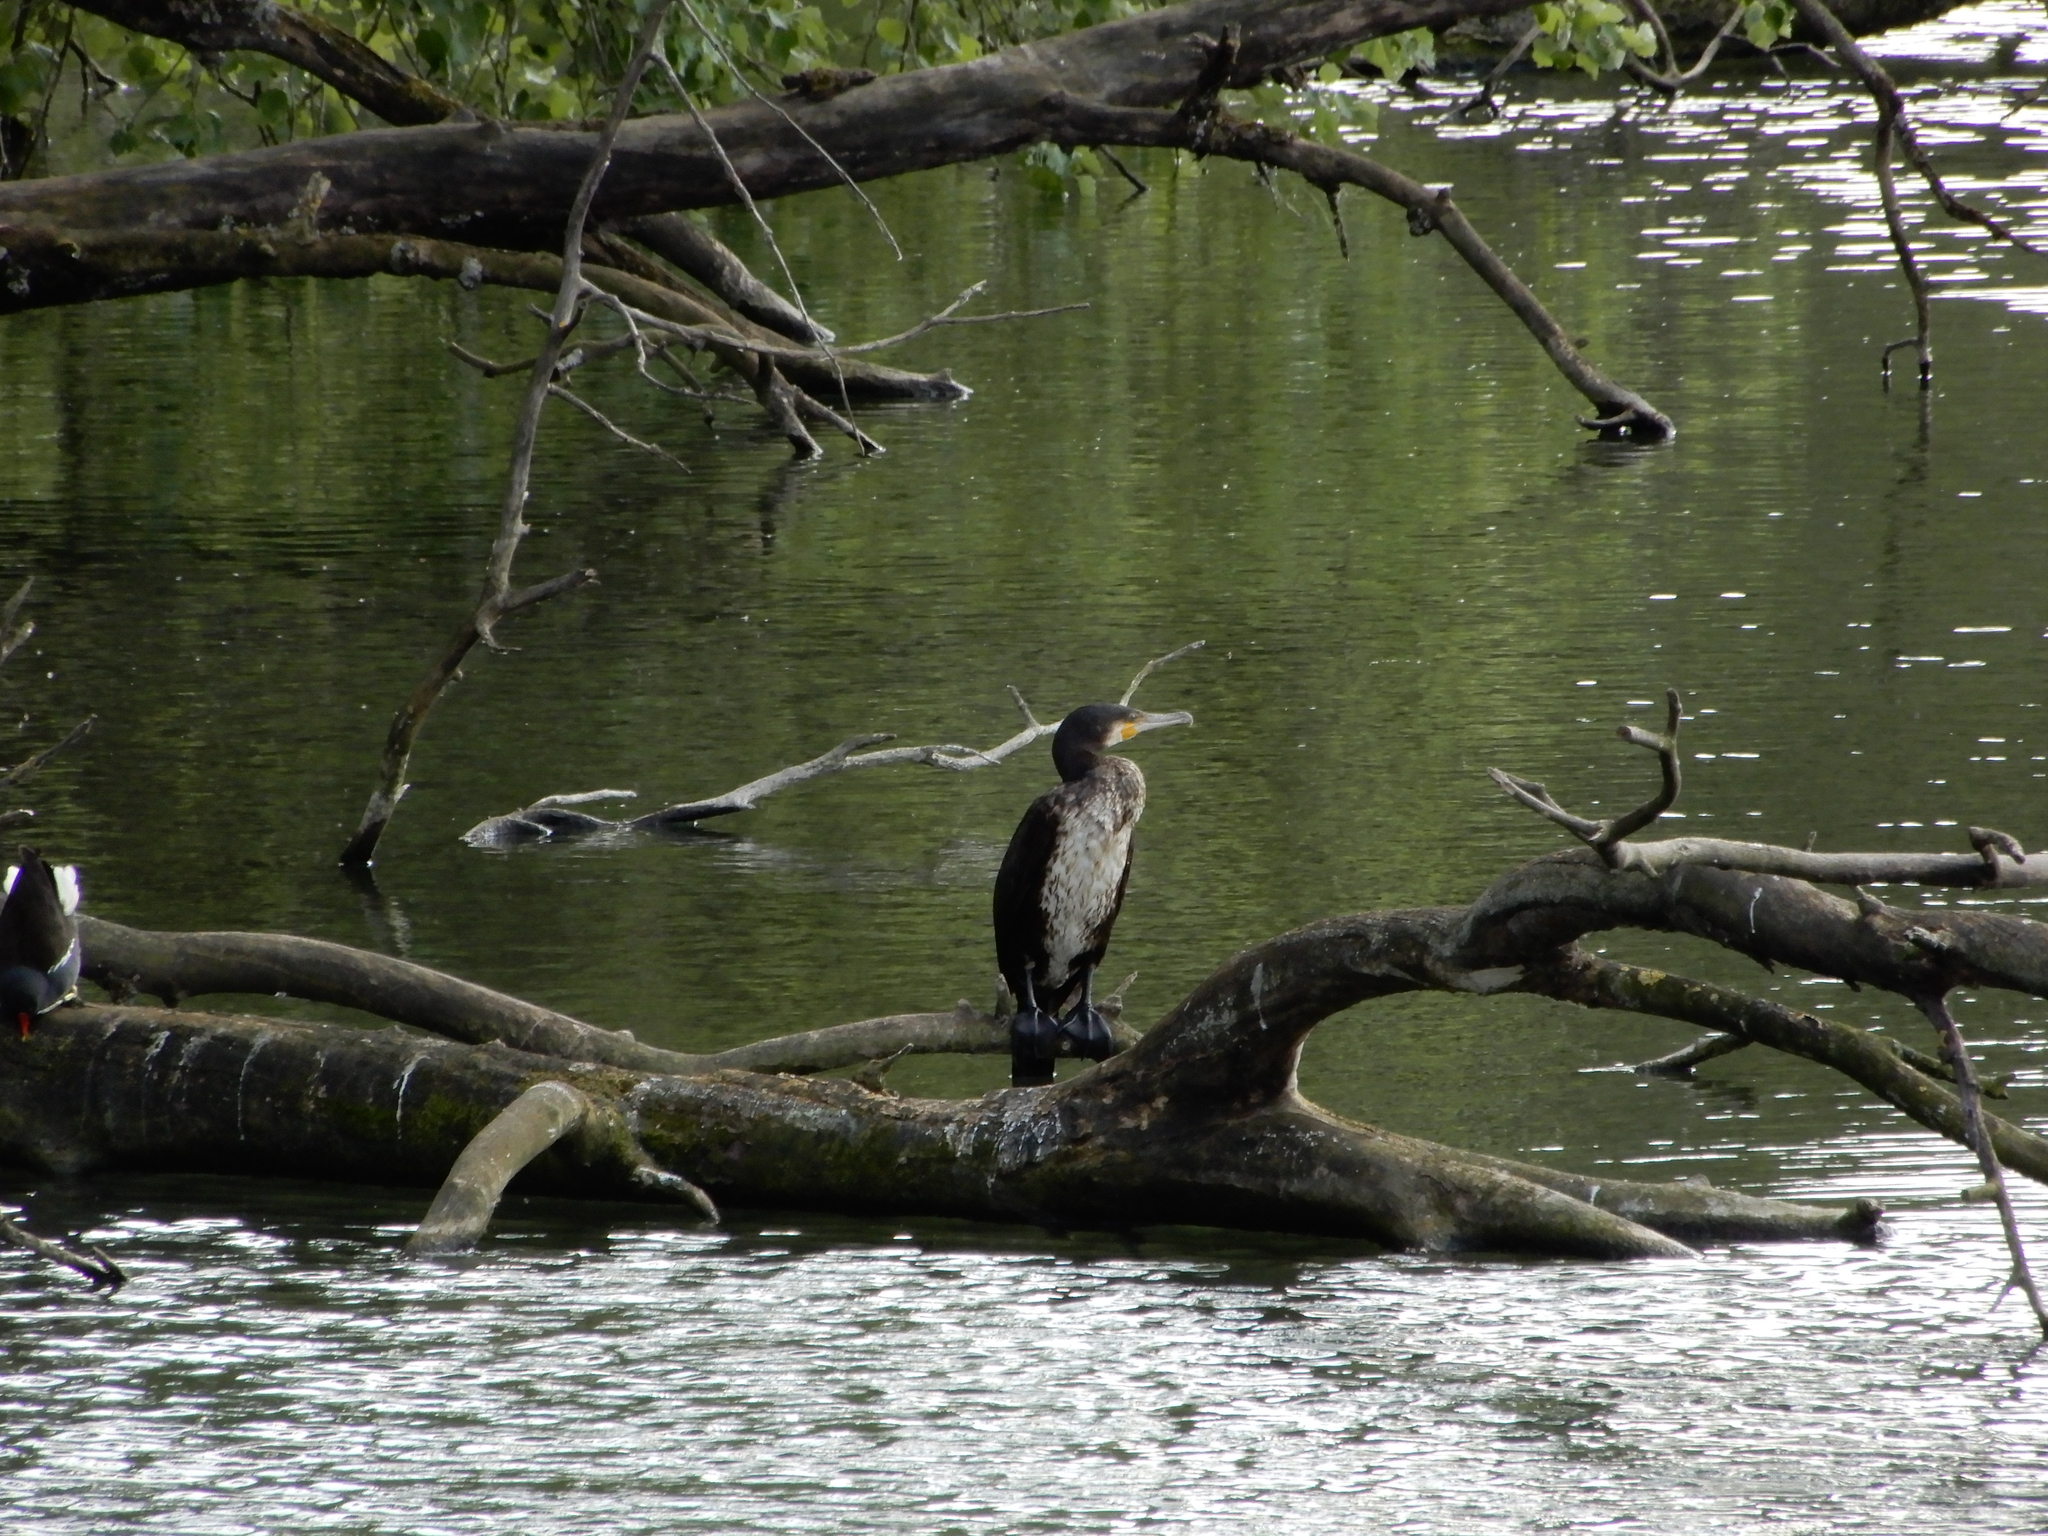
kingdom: Animalia
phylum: Chordata
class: Aves
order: Suliformes
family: Phalacrocoracidae
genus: Phalacrocorax
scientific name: Phalacrocorax carbo
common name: Great cormorant
